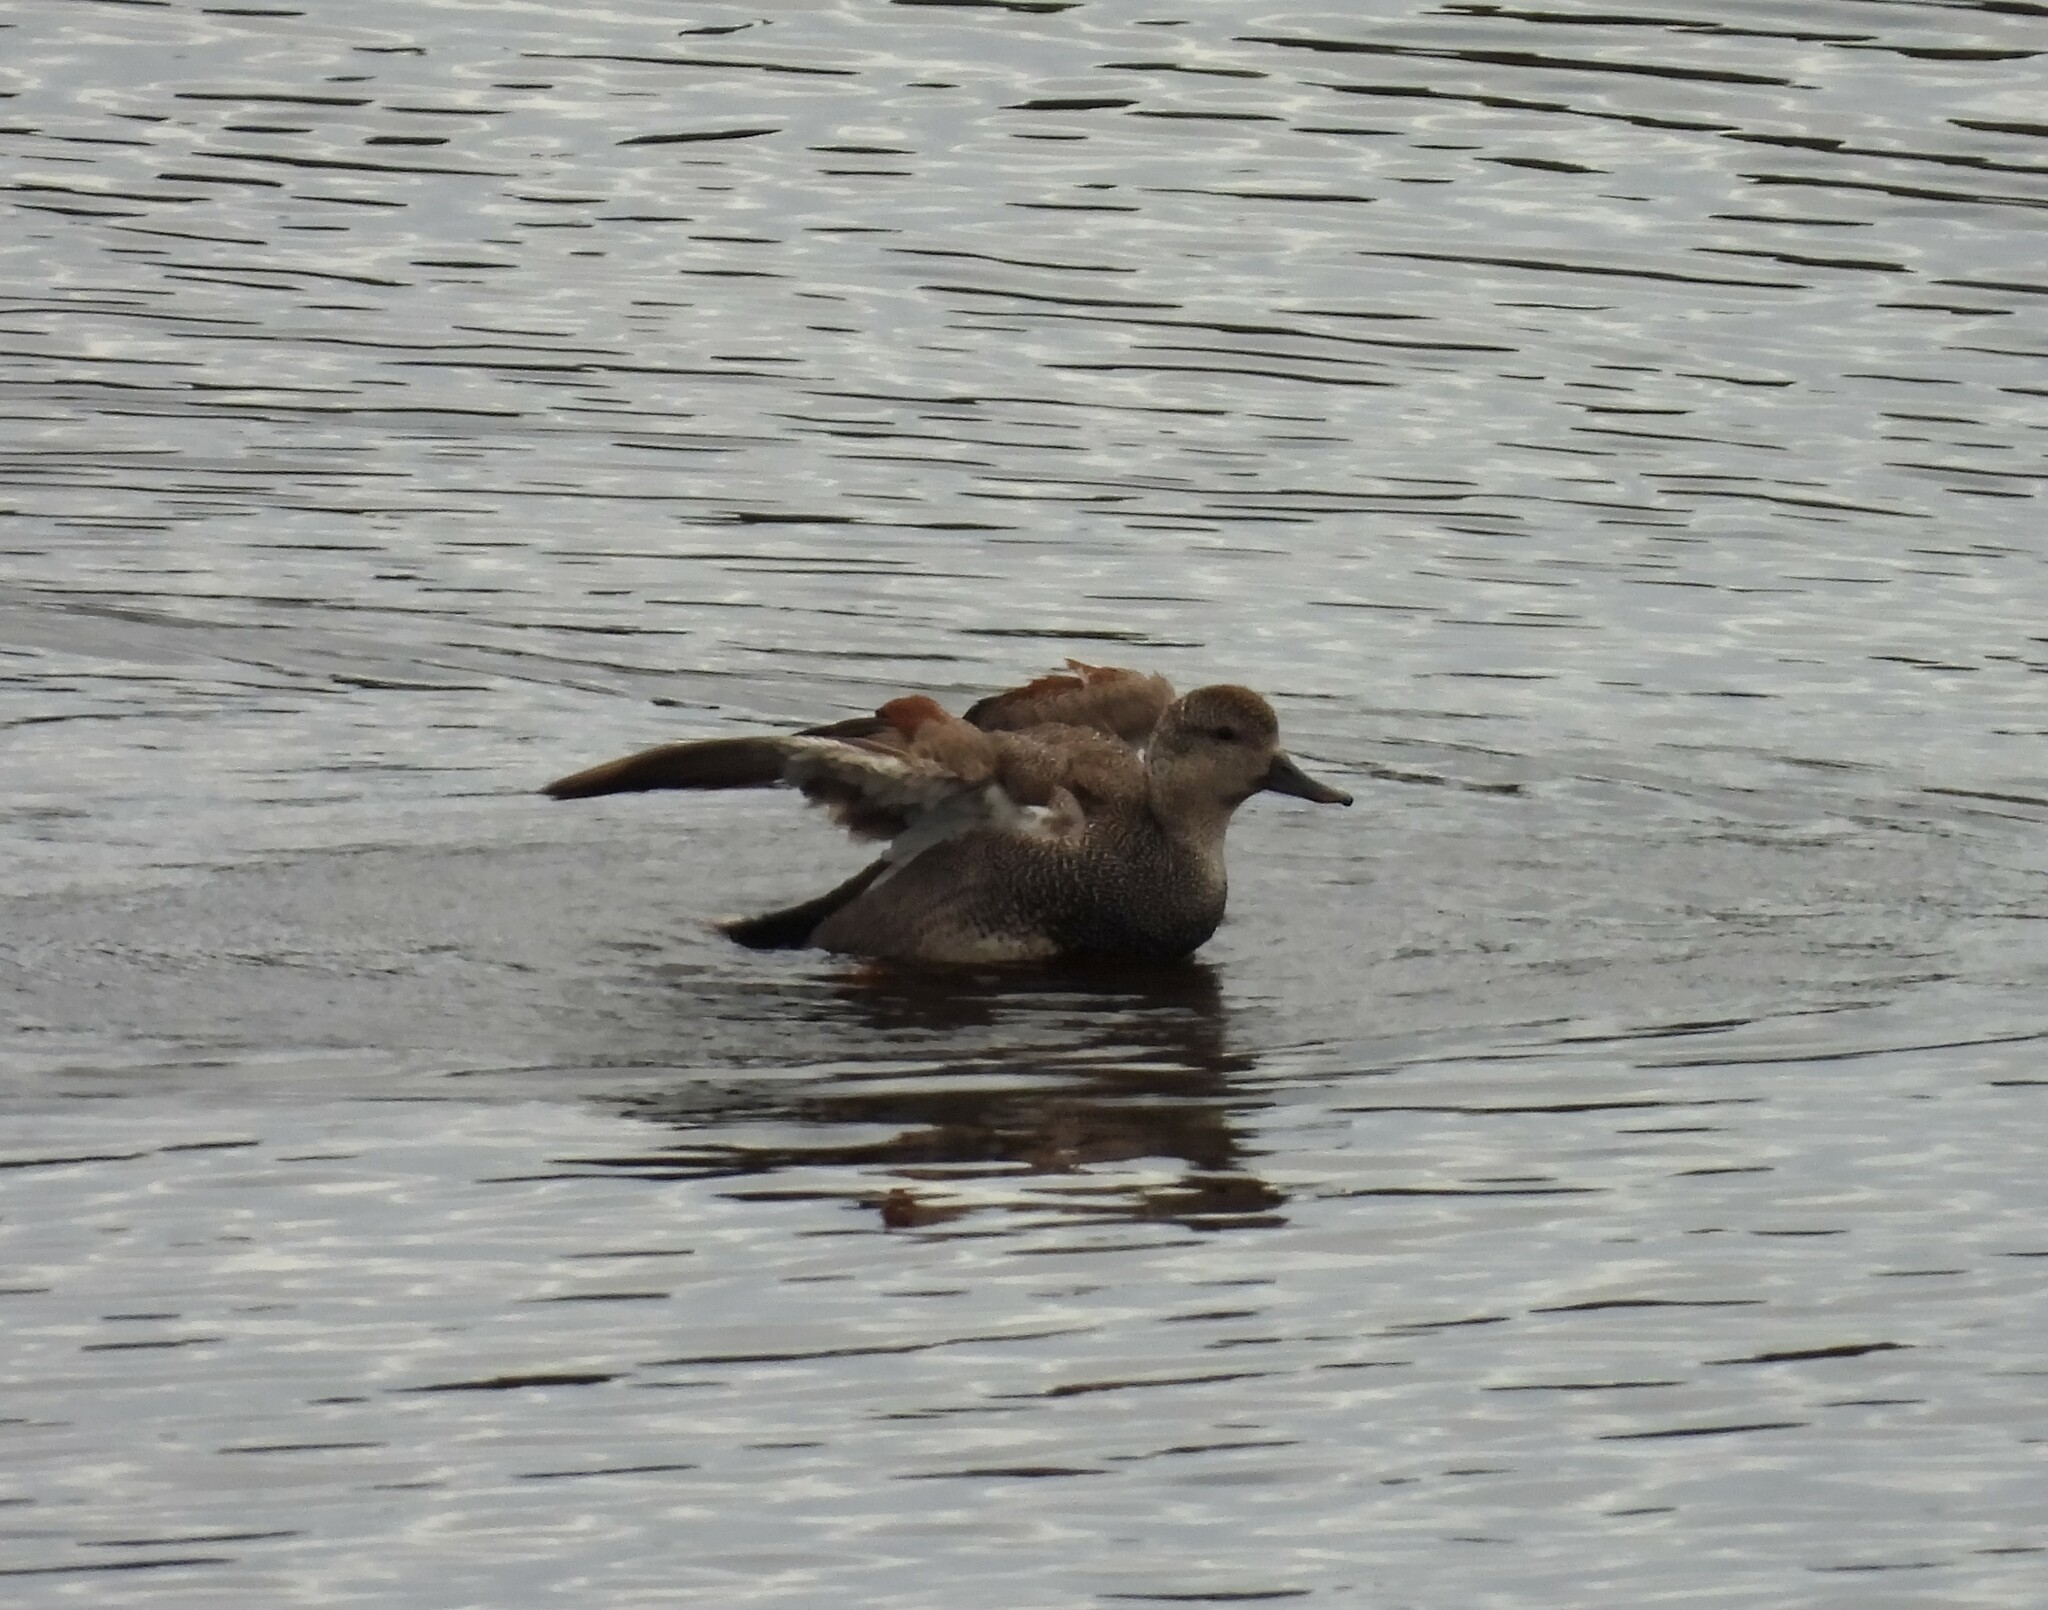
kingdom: Animalia
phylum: Chordata
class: Aves
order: Anseriformes
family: Anatidae
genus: Mareca
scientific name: Mareca strepera
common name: Gadwall
